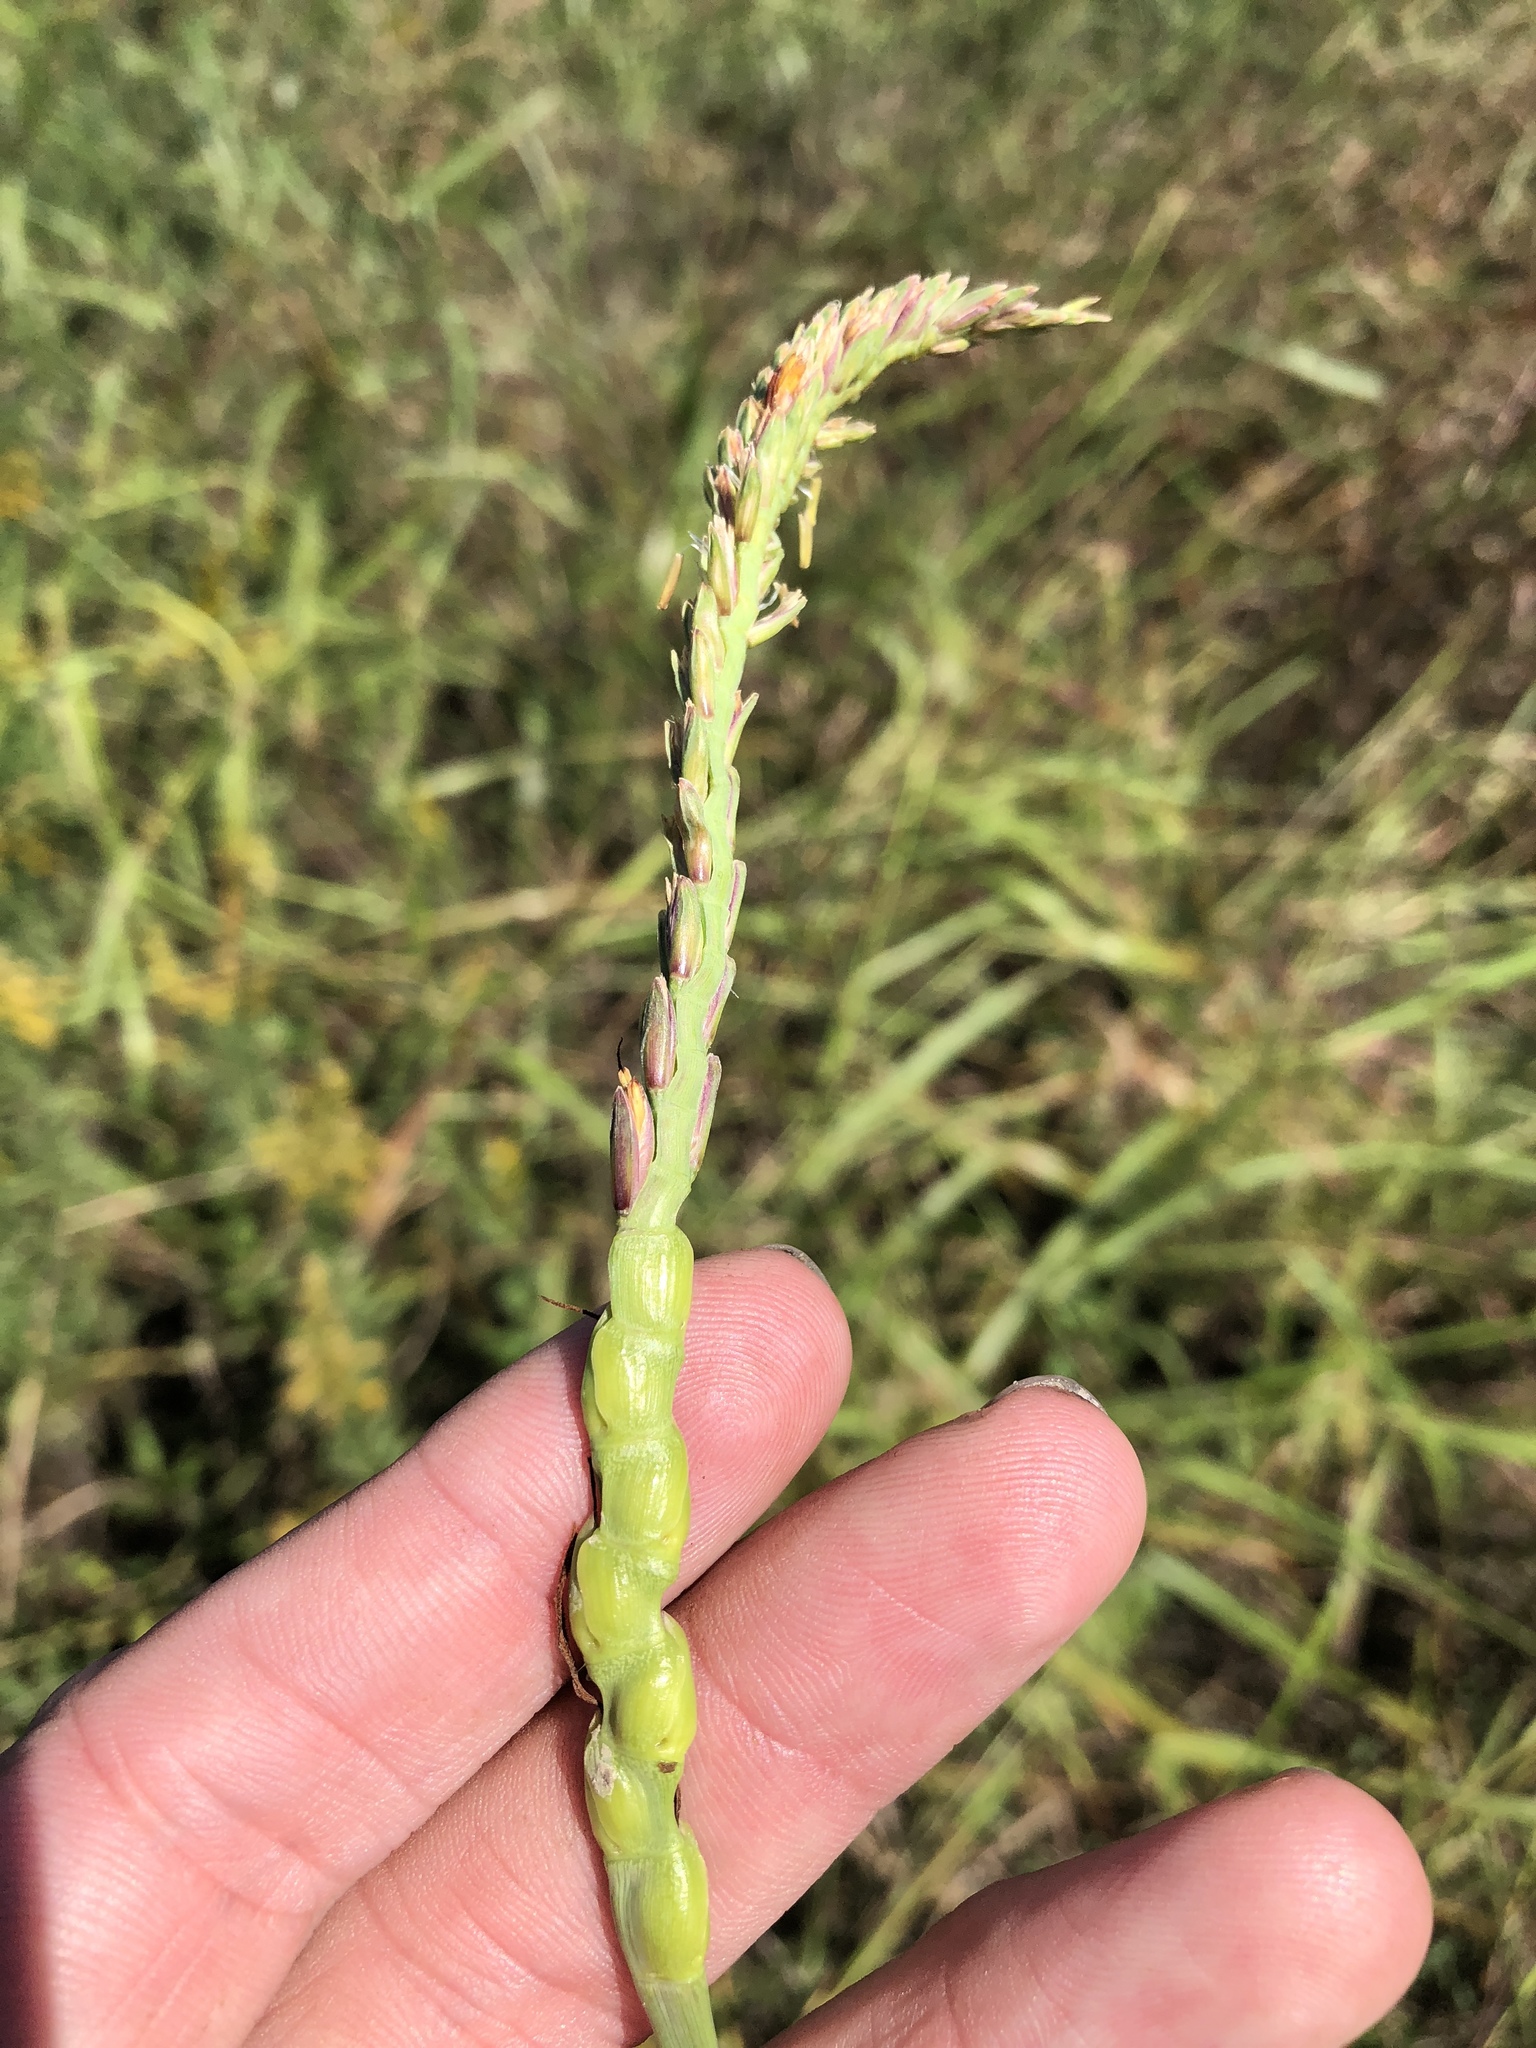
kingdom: Plantae
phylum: Tracheophyta
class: Liliopsida
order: Poales
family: Poaceae
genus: Tripsacum
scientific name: Tripsacum dactyloides
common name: Buffalo-grass
